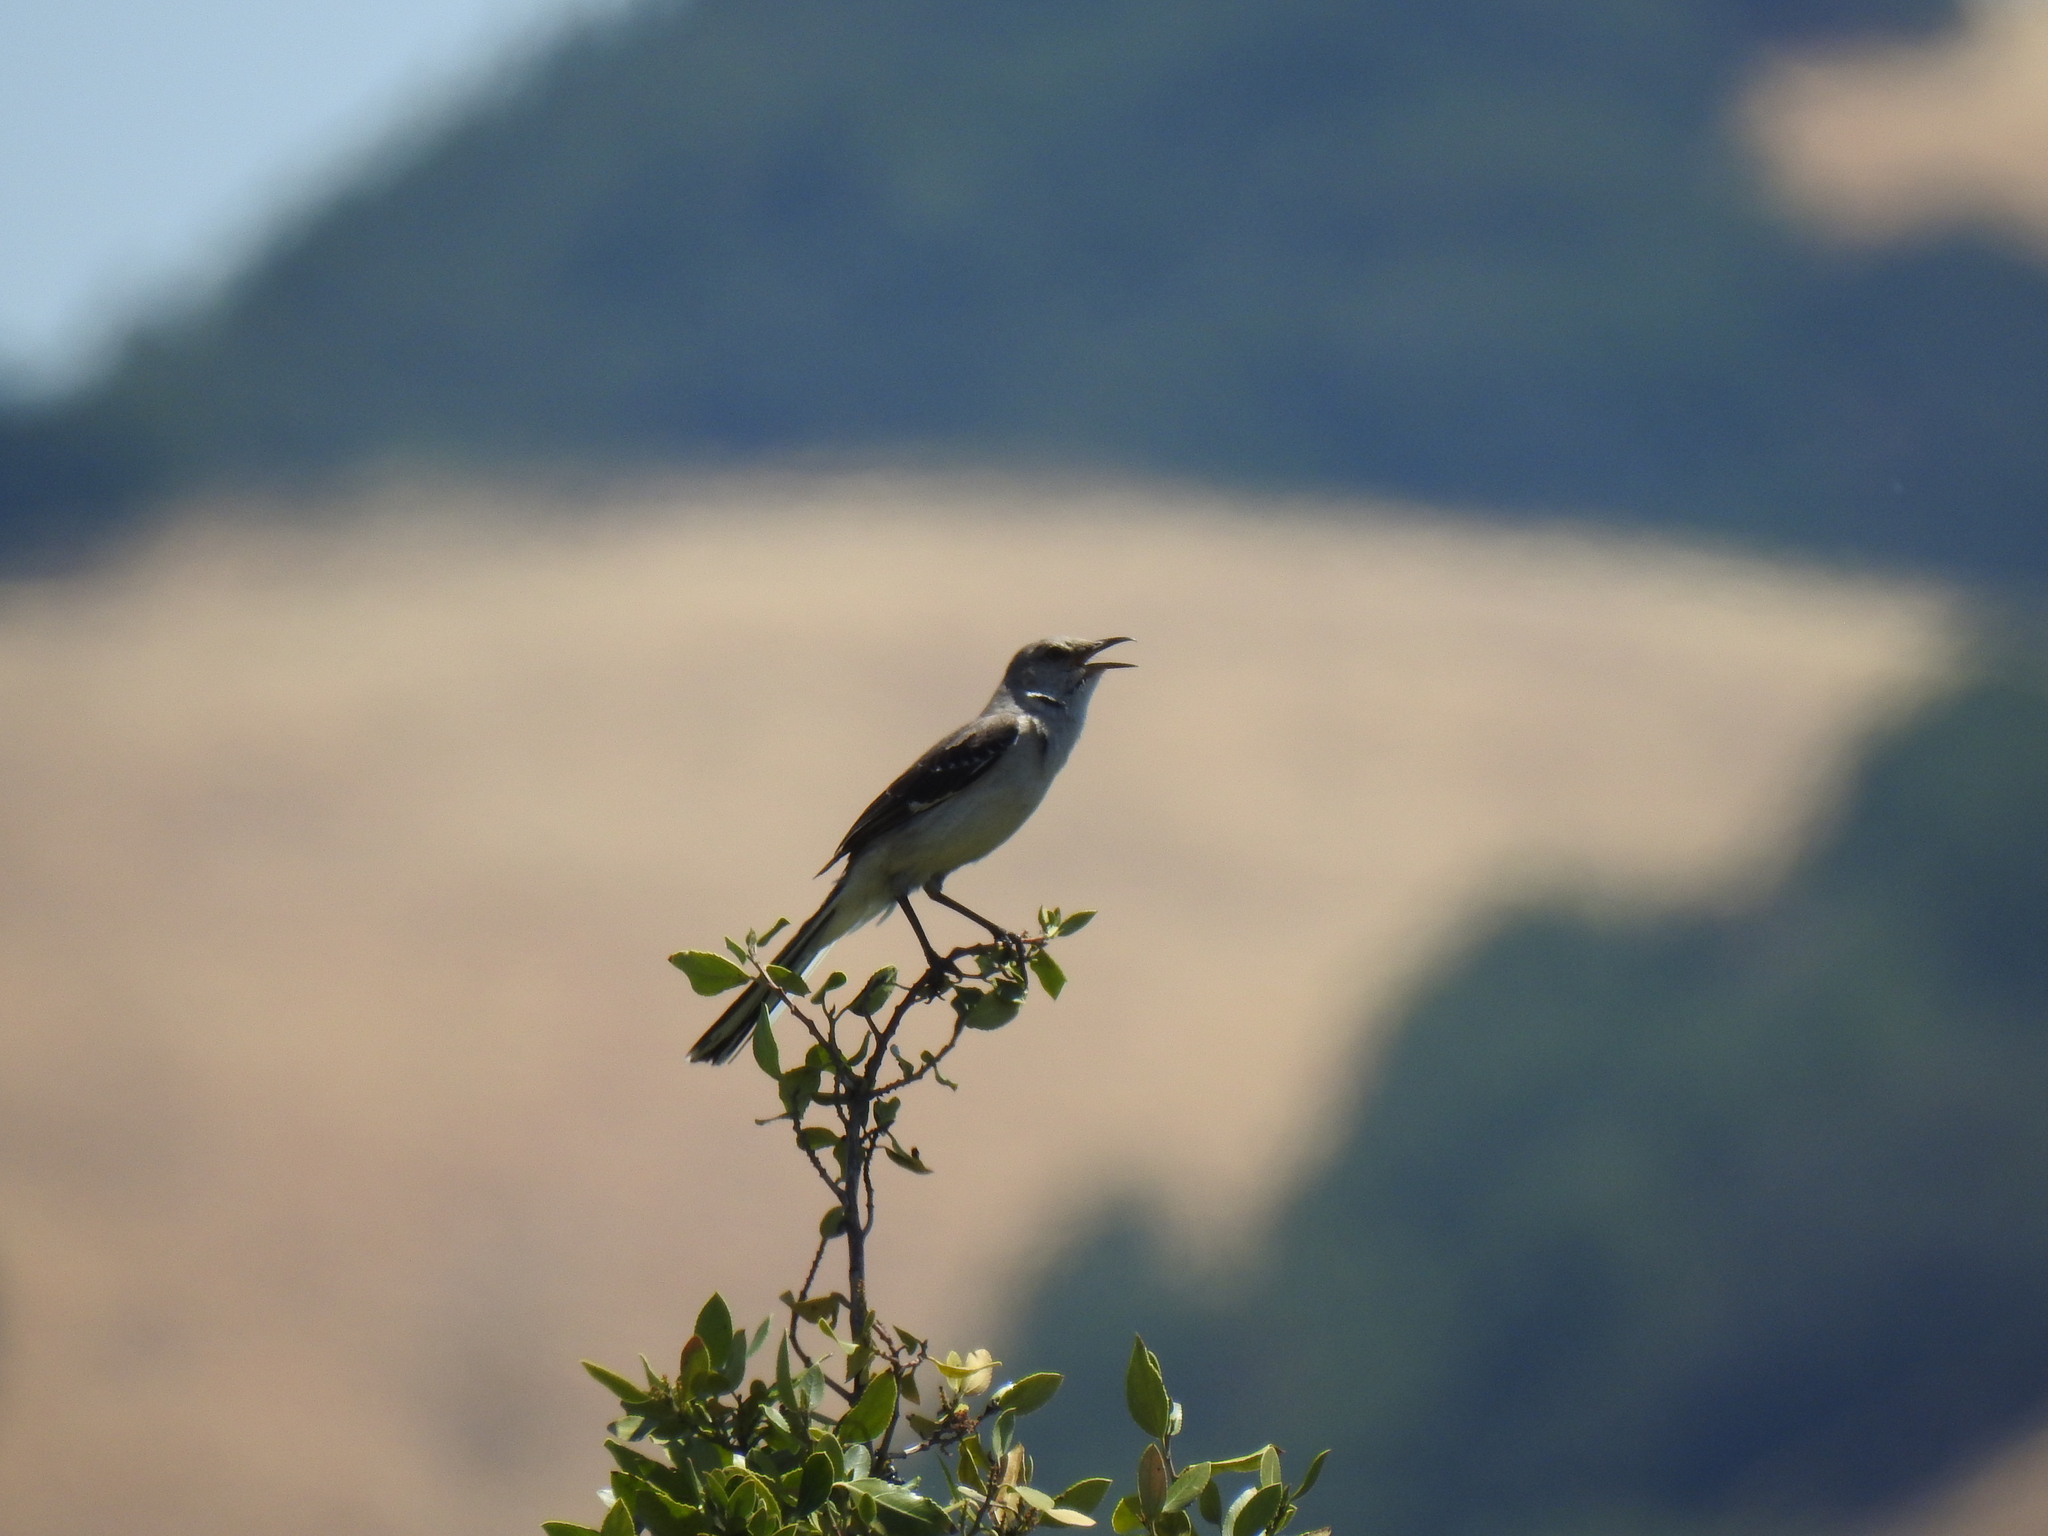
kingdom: Animalia
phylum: Chordata
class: Aves
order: Passeriformes
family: Mimidae
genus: Mimus
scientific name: Mimus polyglottos
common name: Northern mockingbird
